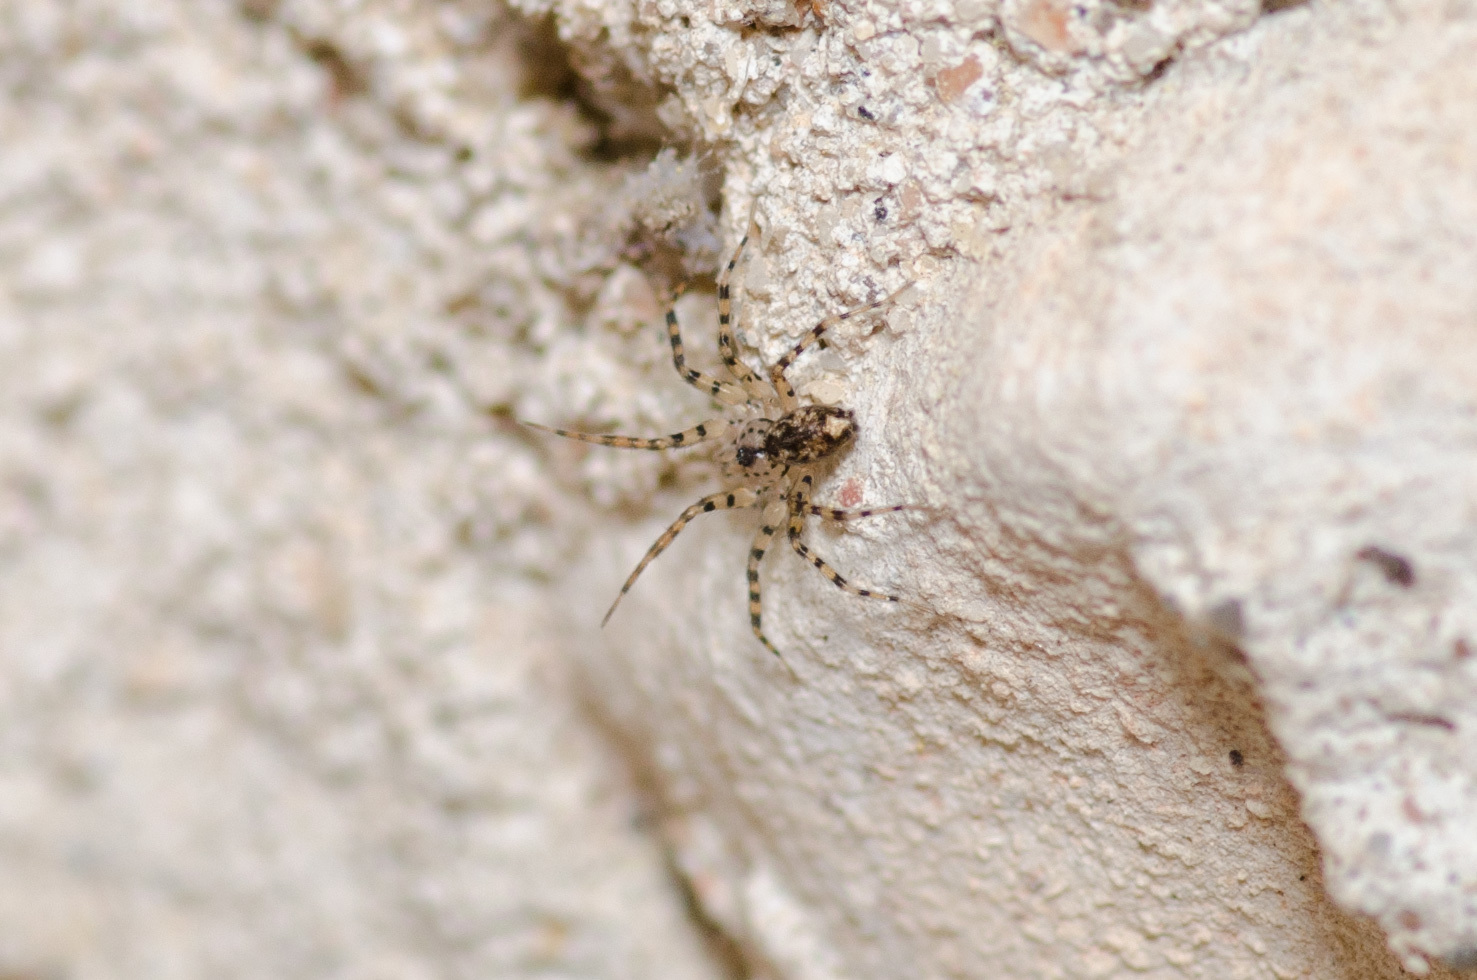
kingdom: Animalia
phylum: Arthropoda
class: Arachnida
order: Araneae
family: Oecobiidae
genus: Oecobius
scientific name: Oecobius navus
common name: Flatmesh weaver
